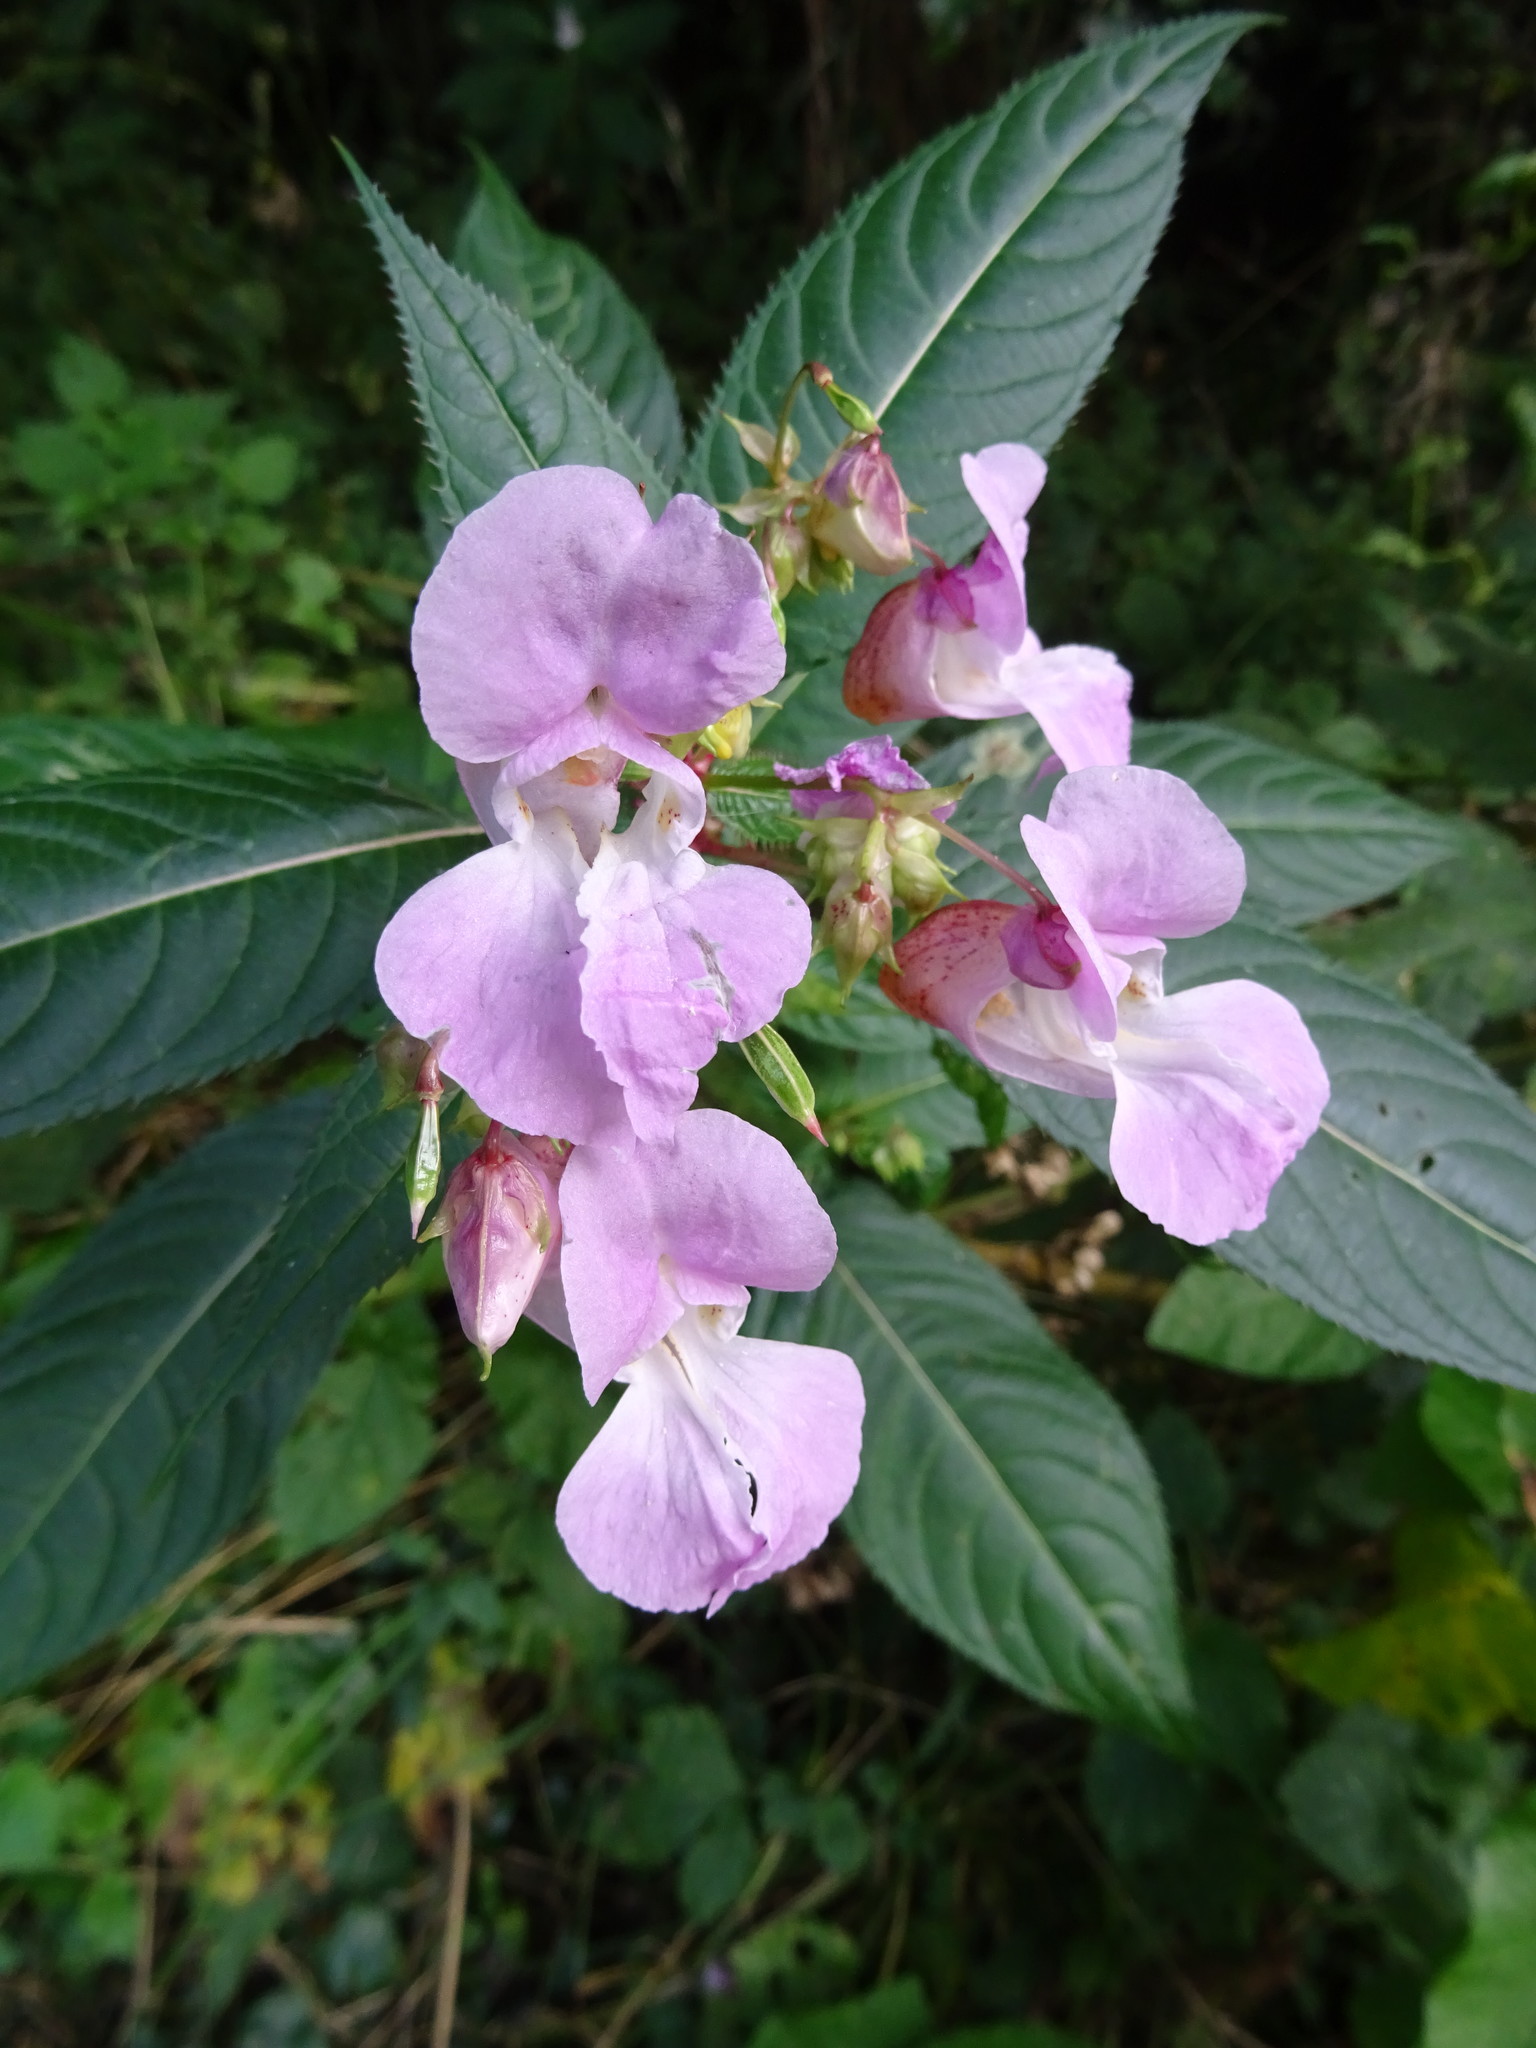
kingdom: Plantae
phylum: Tracheophyta
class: Magnoliopsida
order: Ericales
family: Balsaminaceae
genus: Impatiens
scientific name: Impatiens glandulifera
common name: Himalayan balsam
